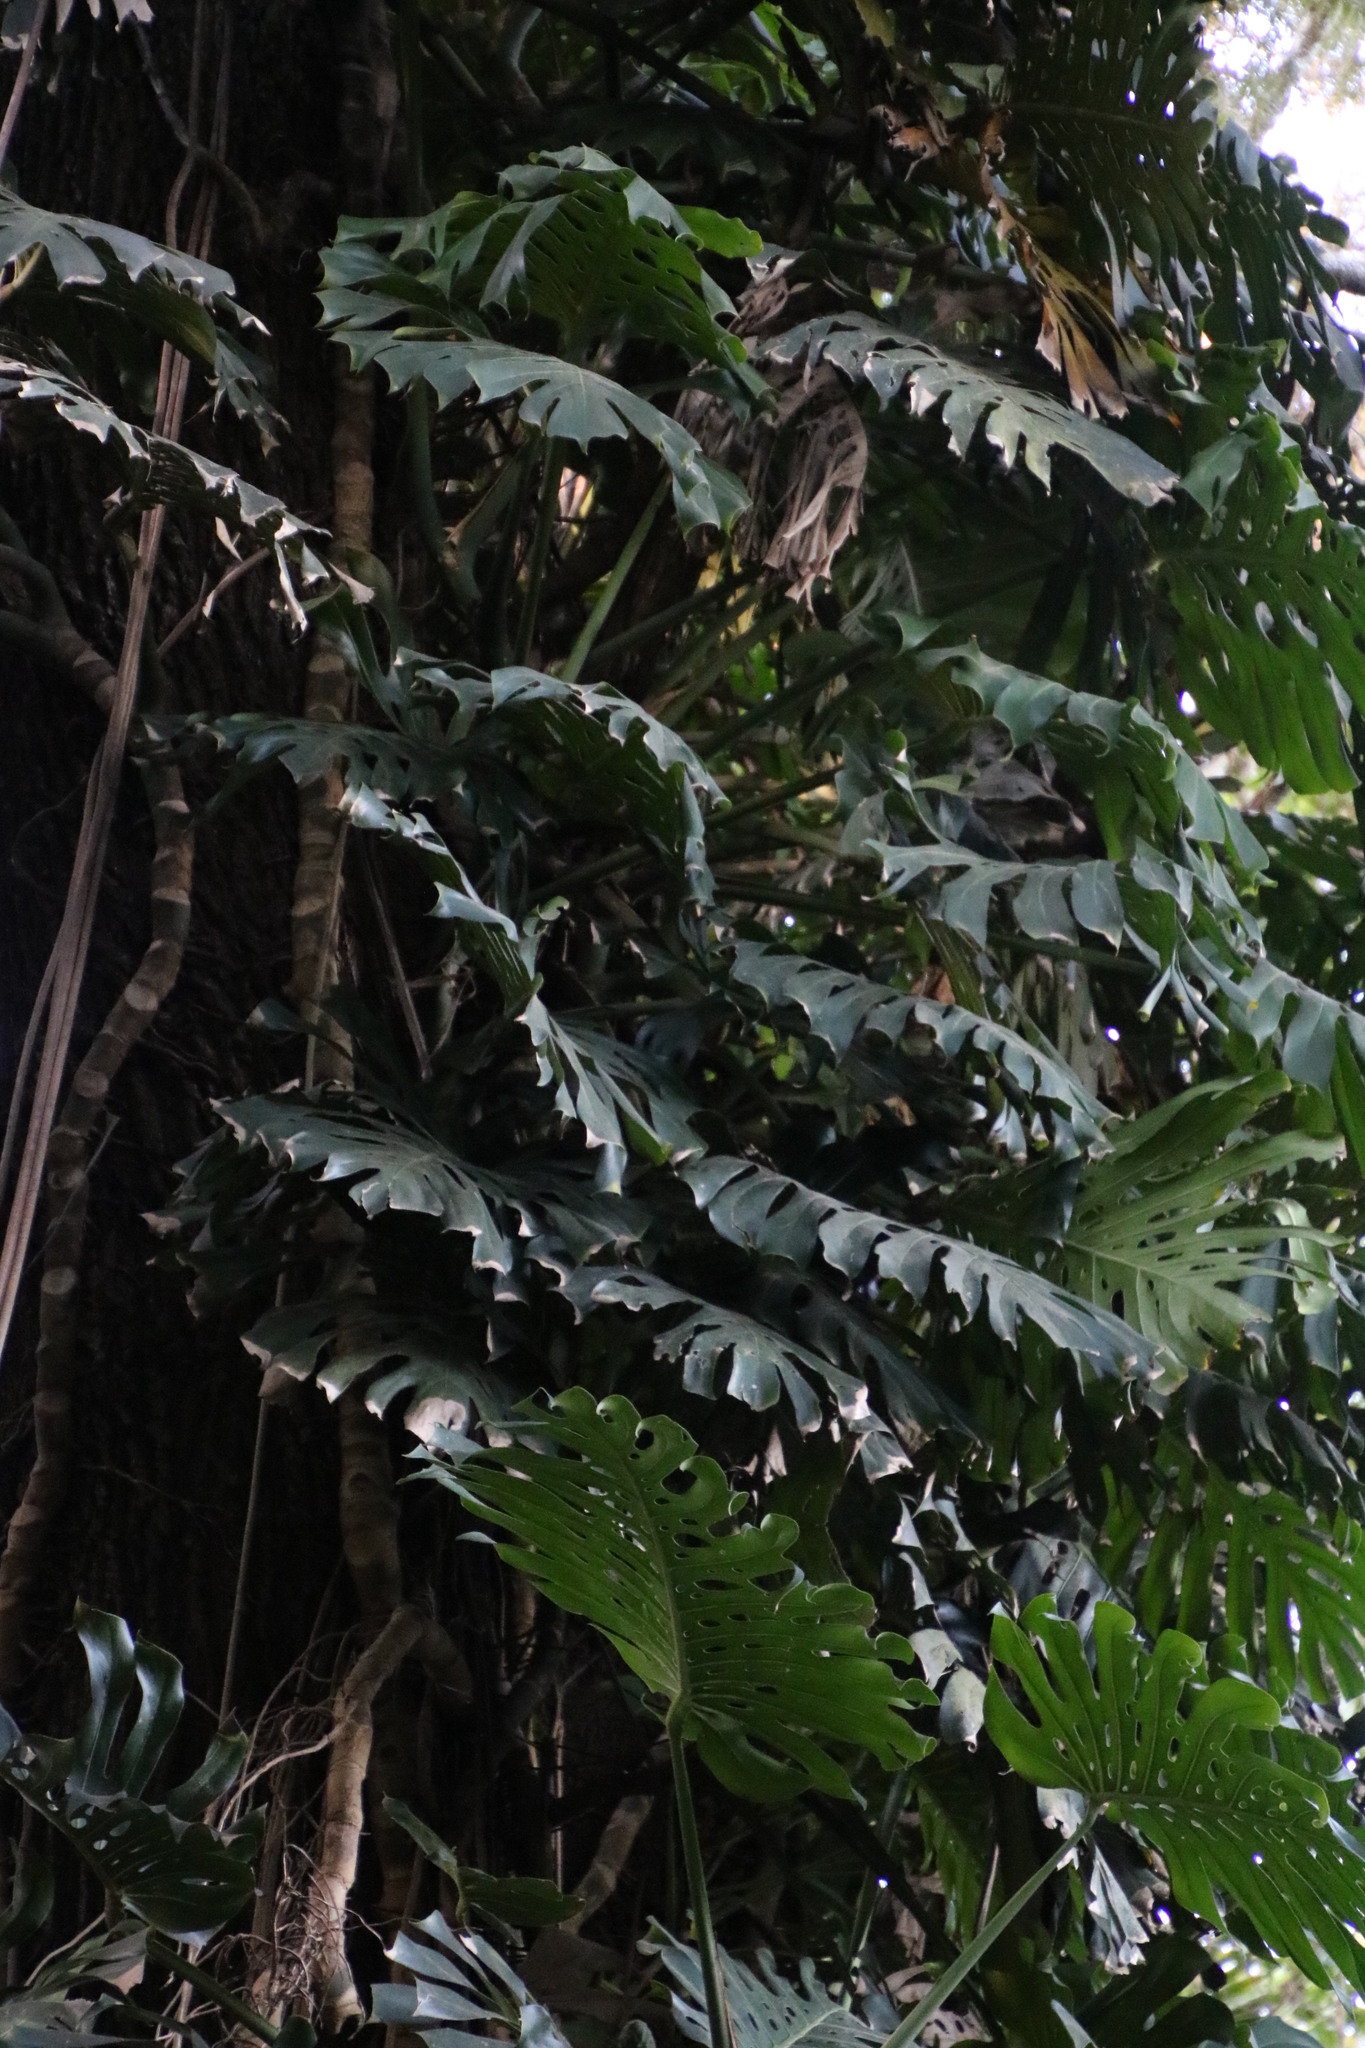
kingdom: Plantae
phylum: Tracheophyta
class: Liliopsida
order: Alismatales
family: Araceae
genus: Monstera
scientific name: Monstera deliciosa
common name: Cut-leaf-philodendron
